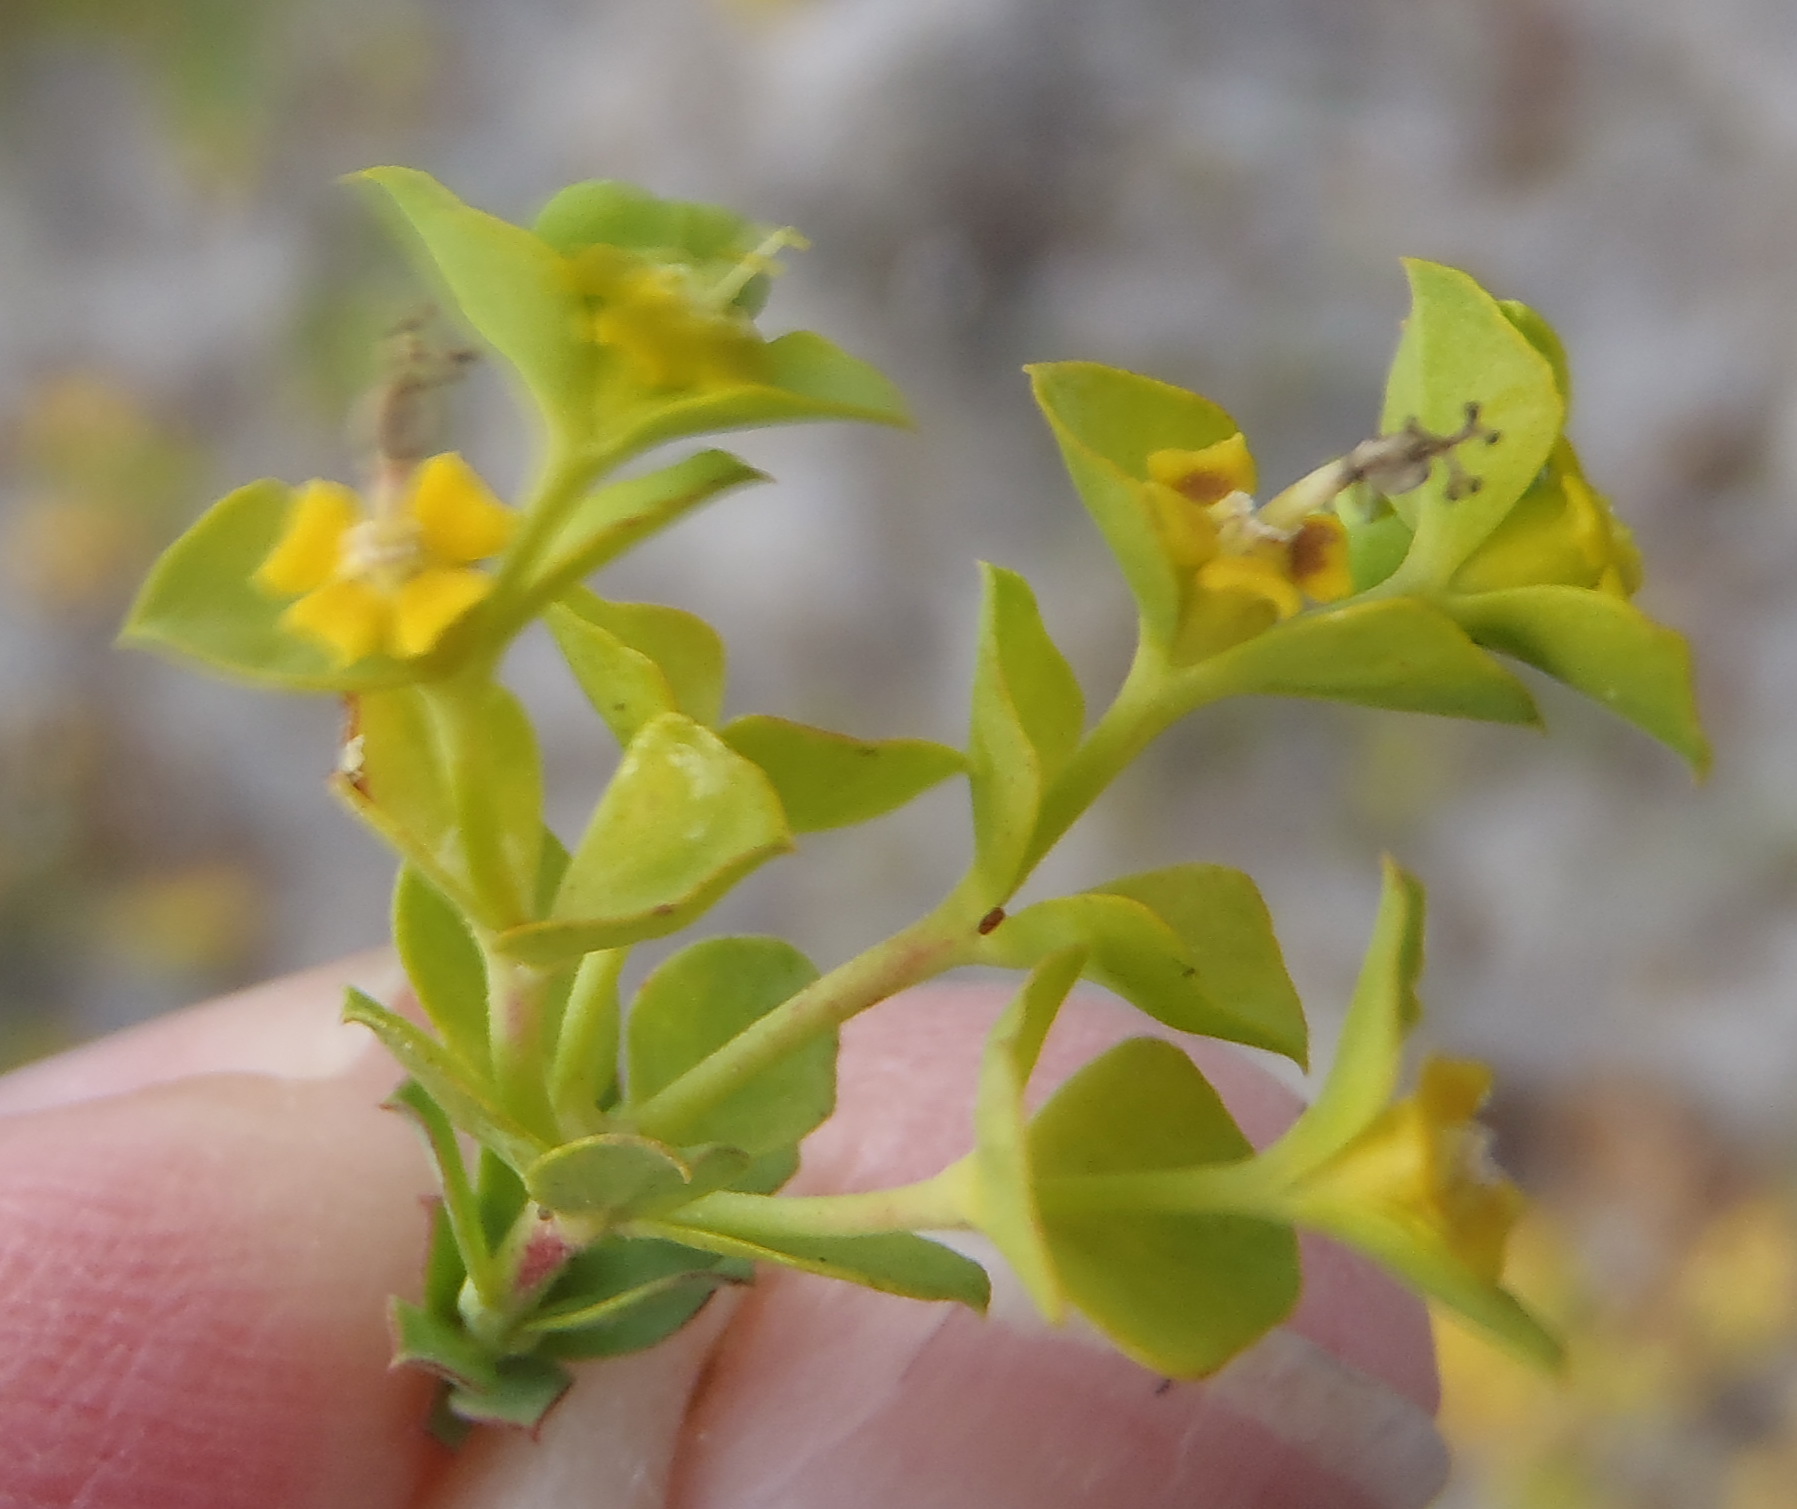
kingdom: Plantae
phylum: Tracheophyta
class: Magnoliopsida
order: Malpighiales
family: Euphorbiaceae
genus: Euphorbia
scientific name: Euphorbia genistoides
